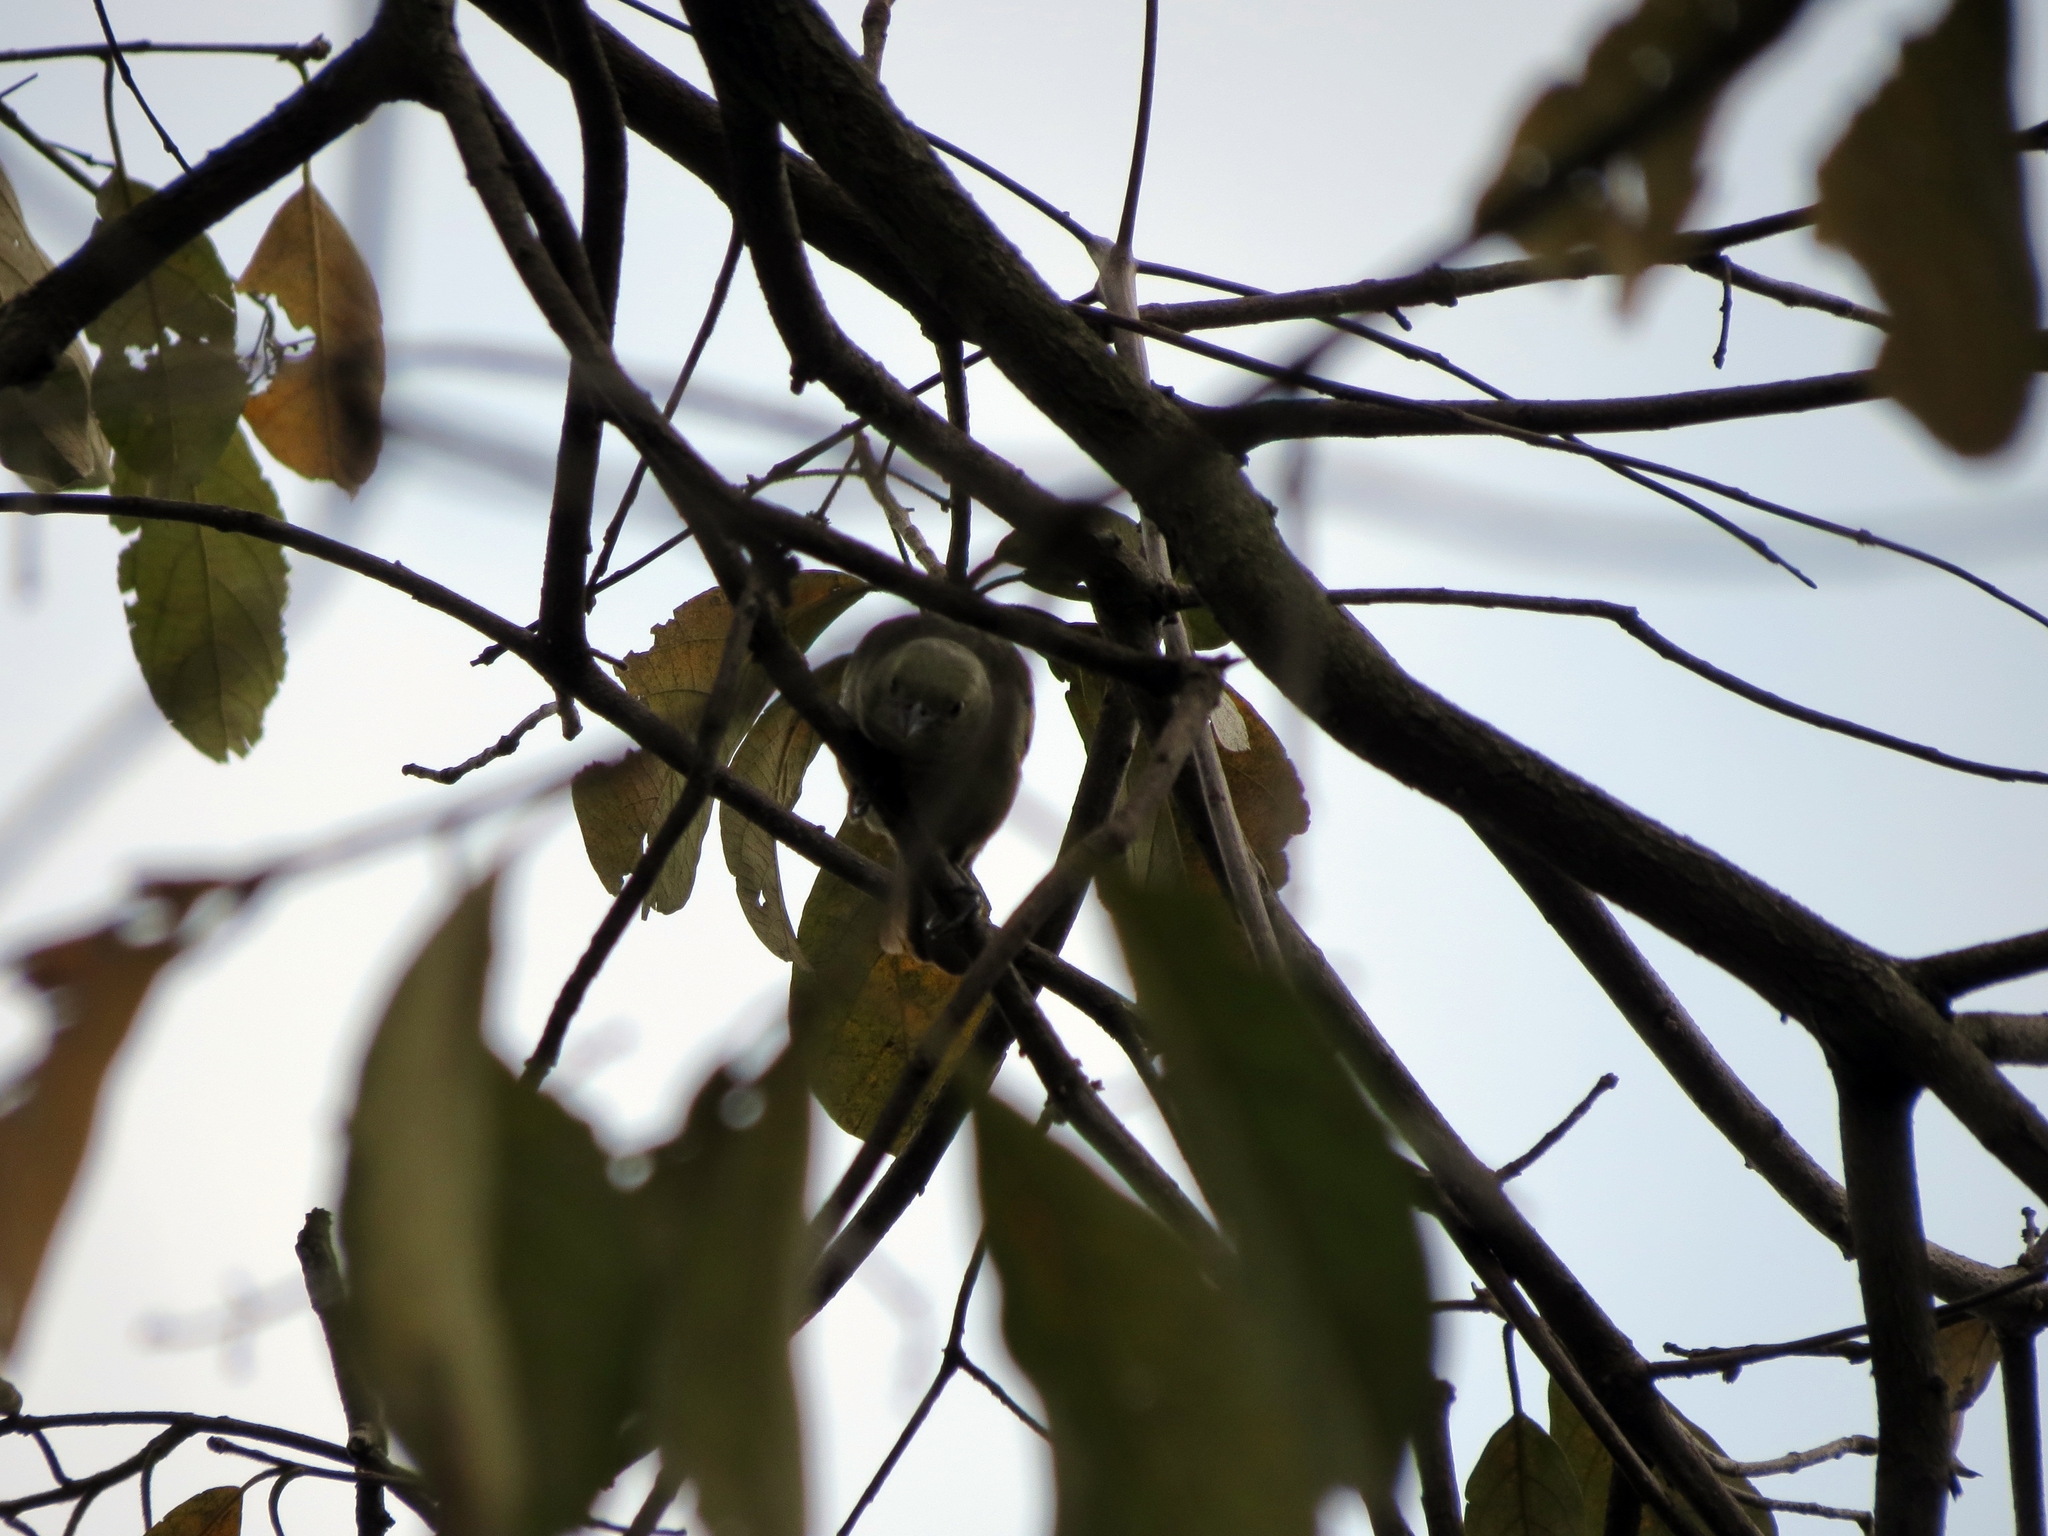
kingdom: Animalia
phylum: Chordata
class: Aves
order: Passeriformes
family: Thraupidae
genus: Thraupis
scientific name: Thraupis palmarum
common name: Palm tanager
